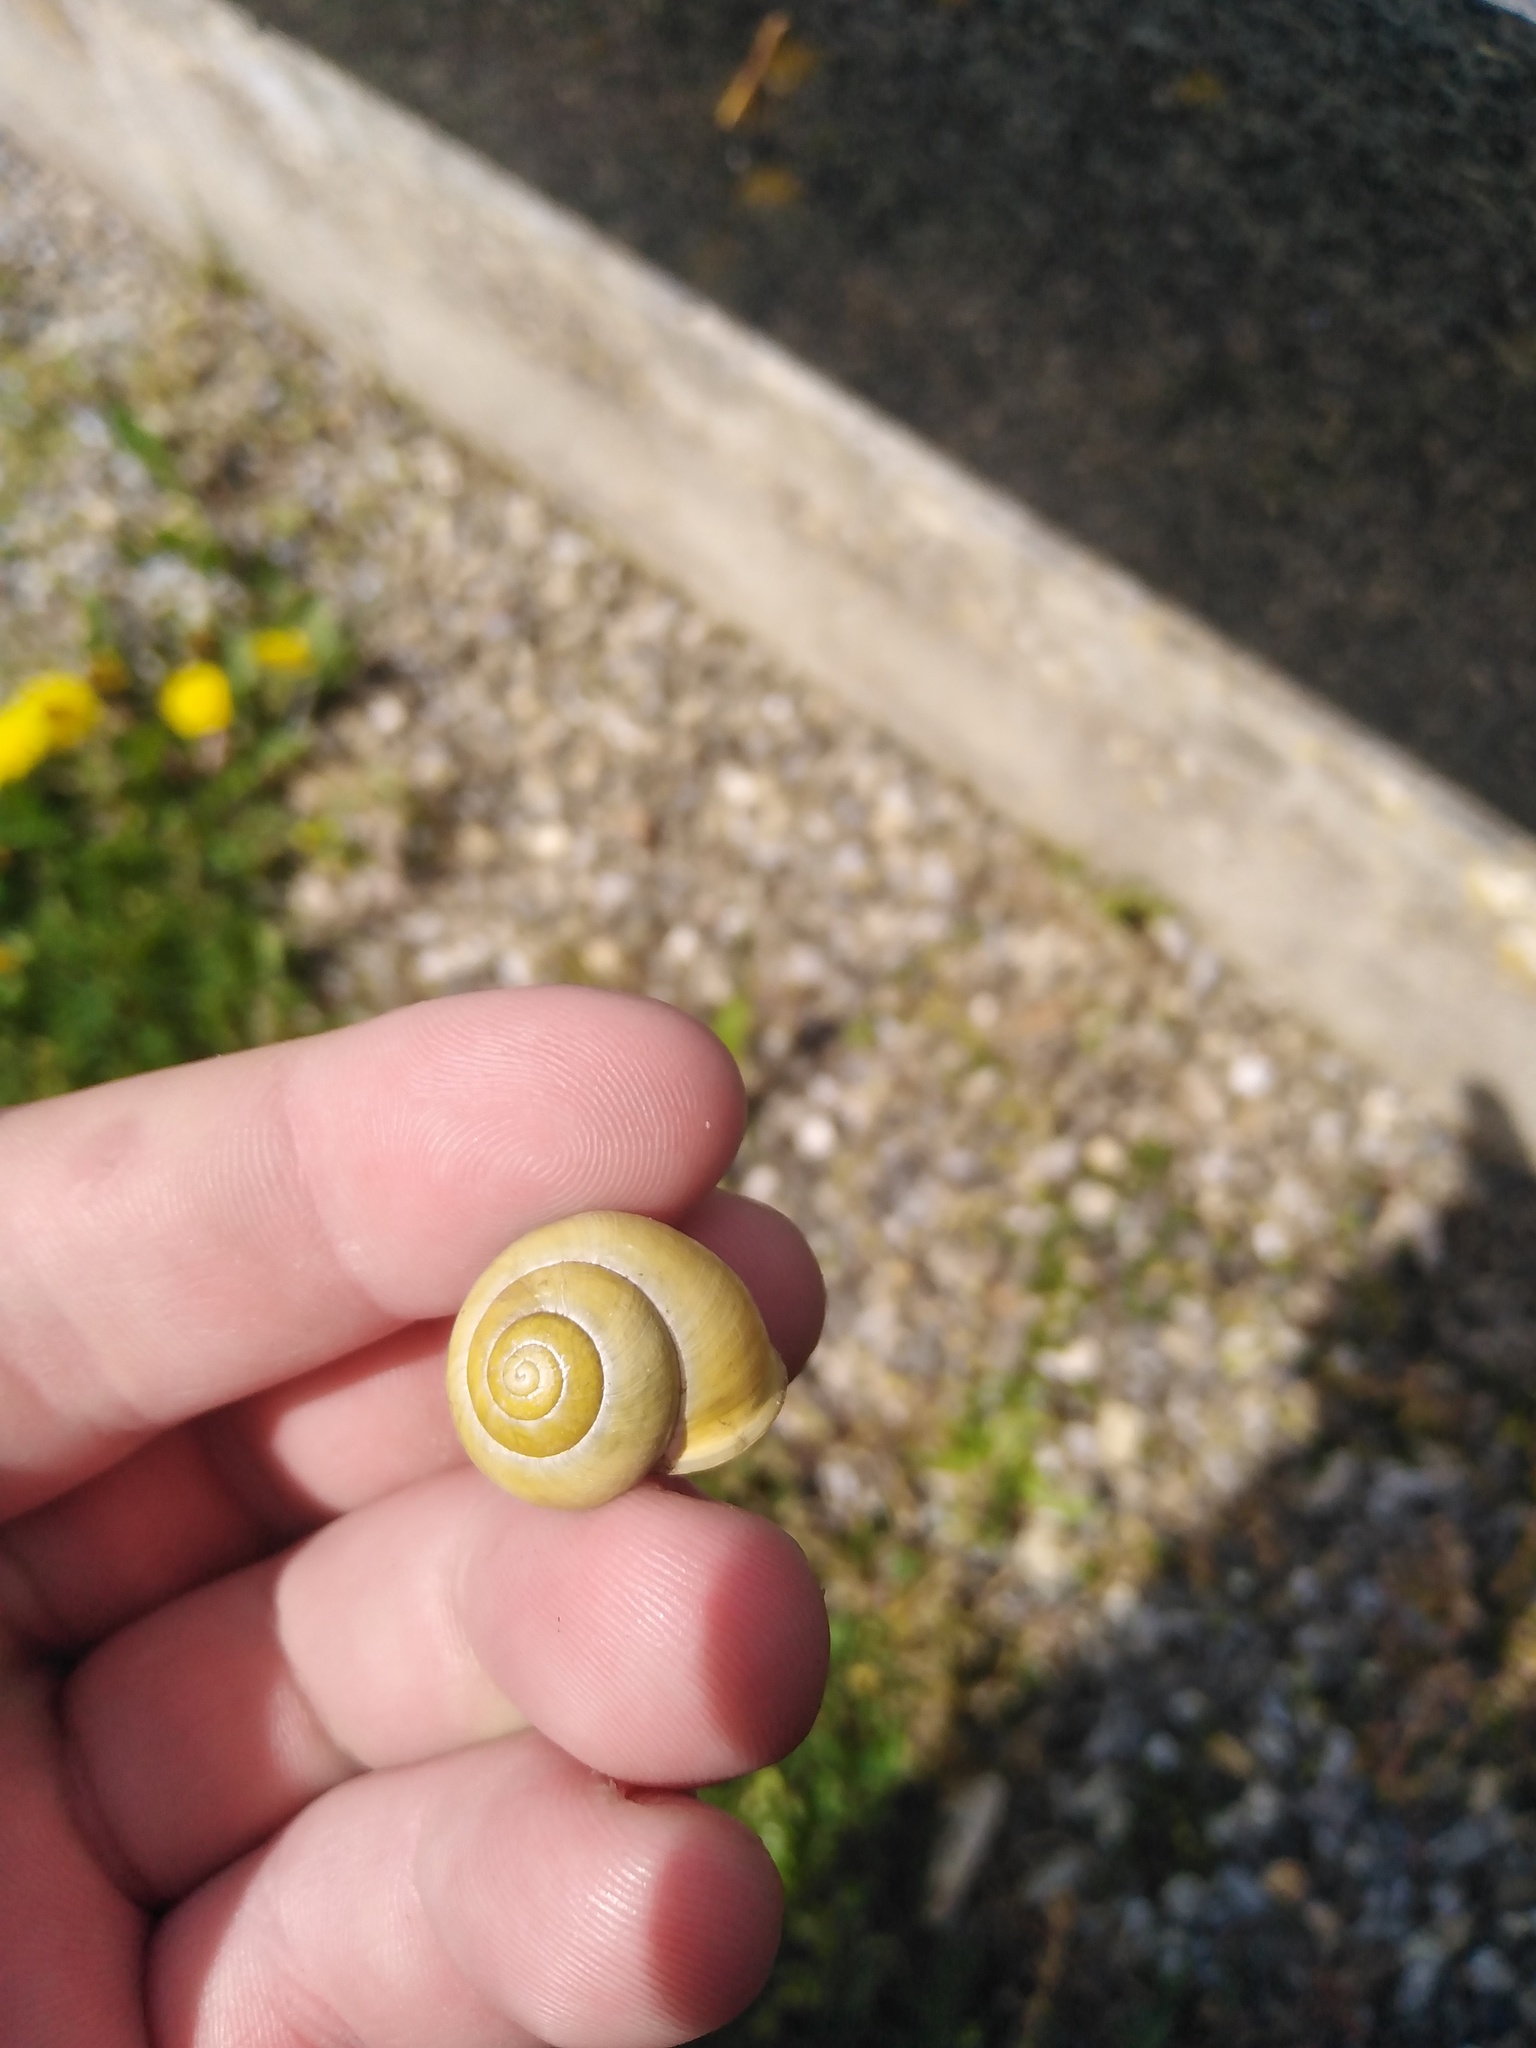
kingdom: Animalia
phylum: Mollusca
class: Gastropoda
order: Stylommatophora
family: Helicidae
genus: Cepaea
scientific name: Cepaea hortensis
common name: White-lip gardensnail
